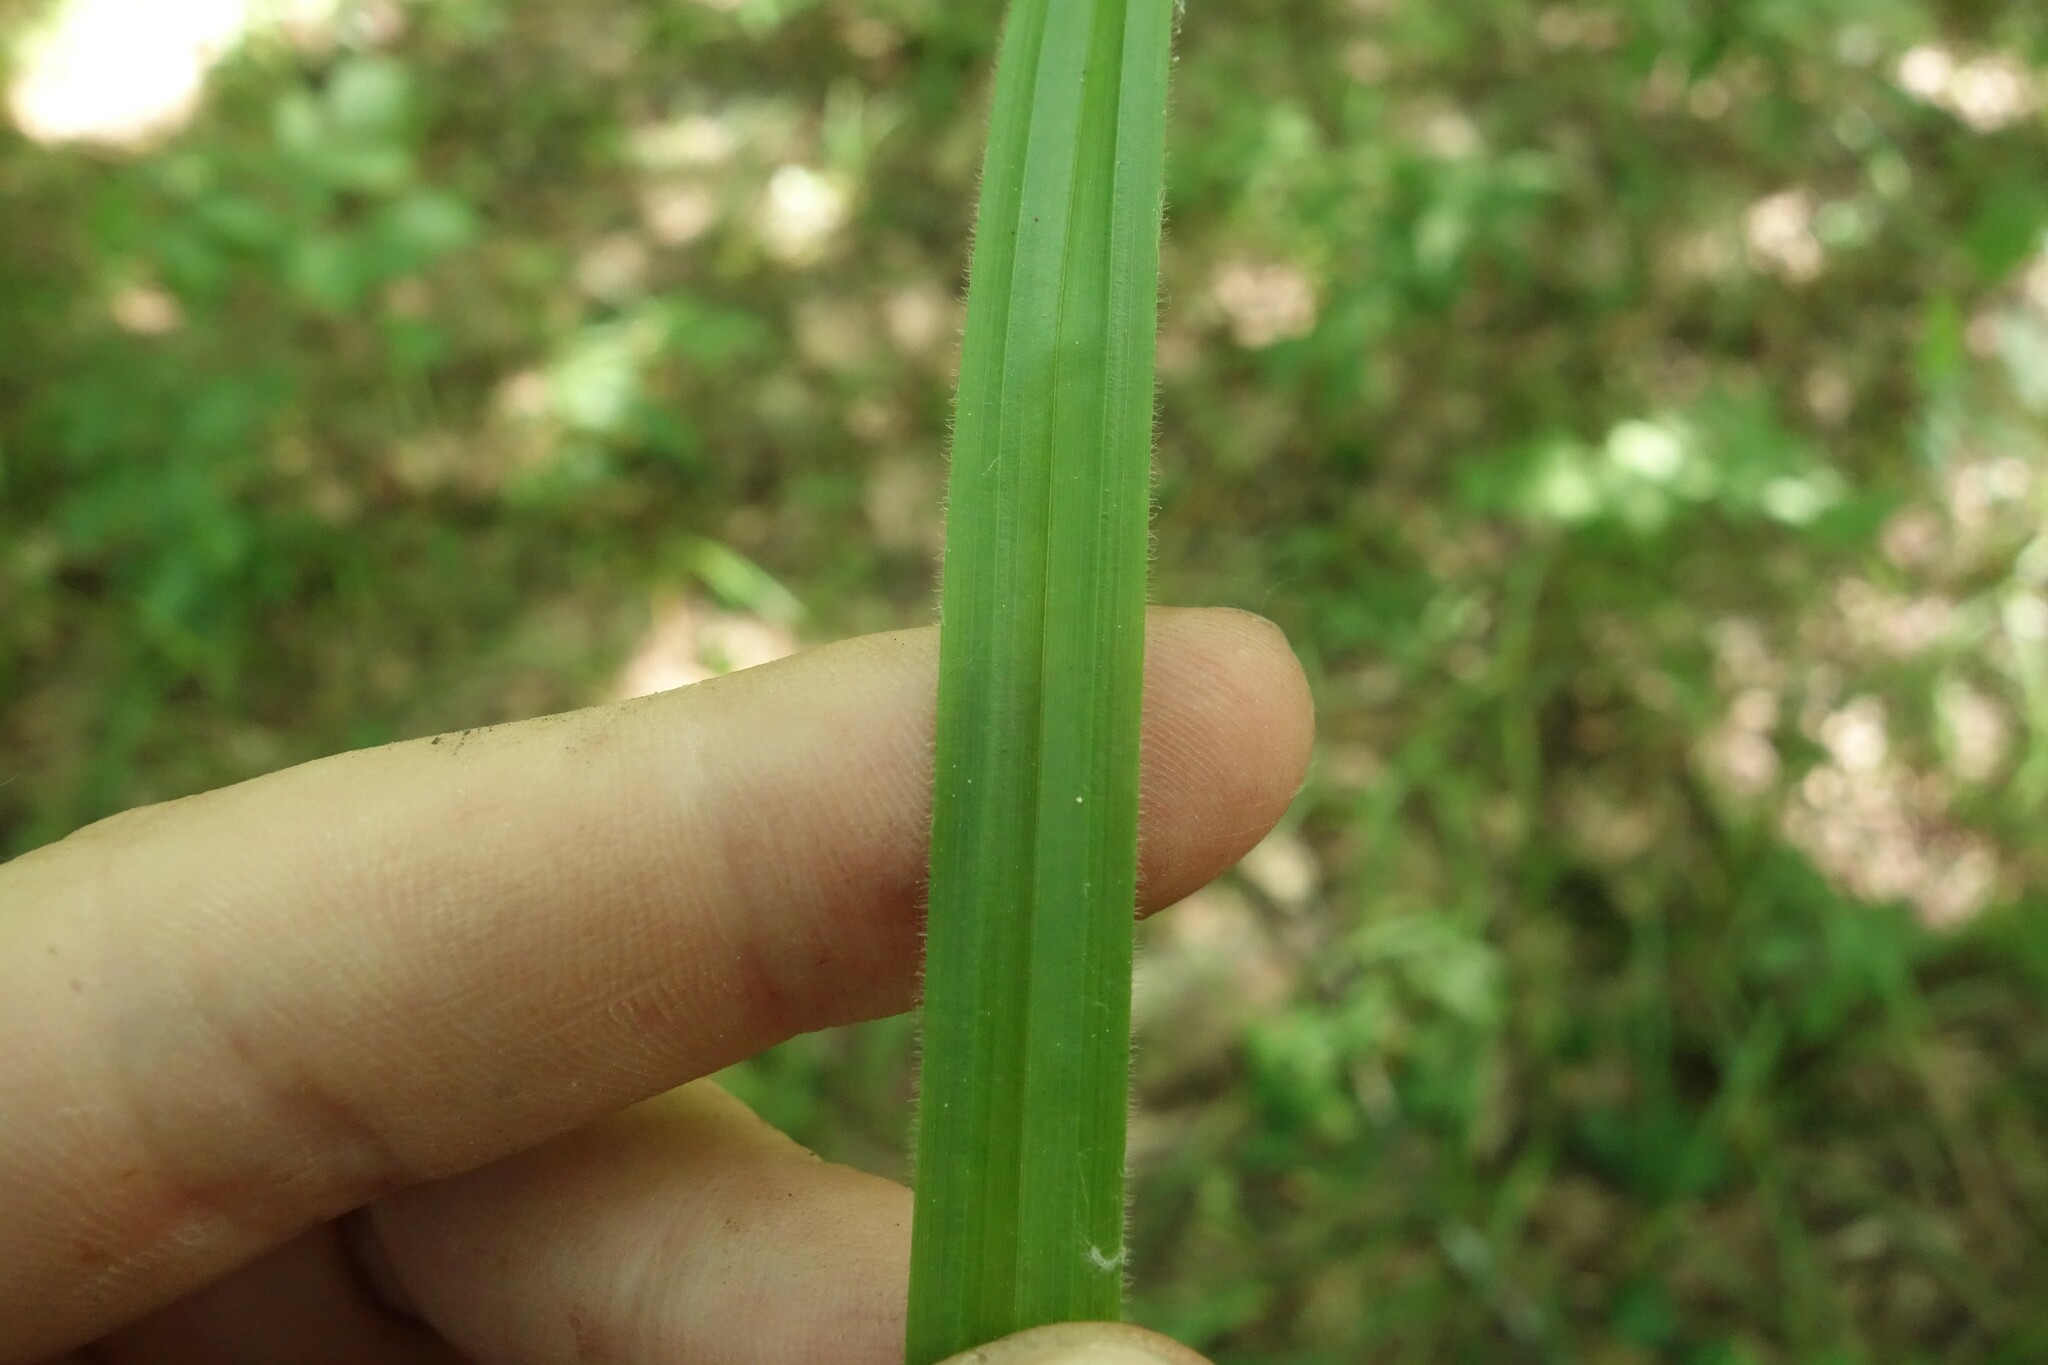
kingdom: Plantae
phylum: Tracheophyta
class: Liliopsida
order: Poales
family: Cyperaceae
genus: Carex
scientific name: Carex pilosa
